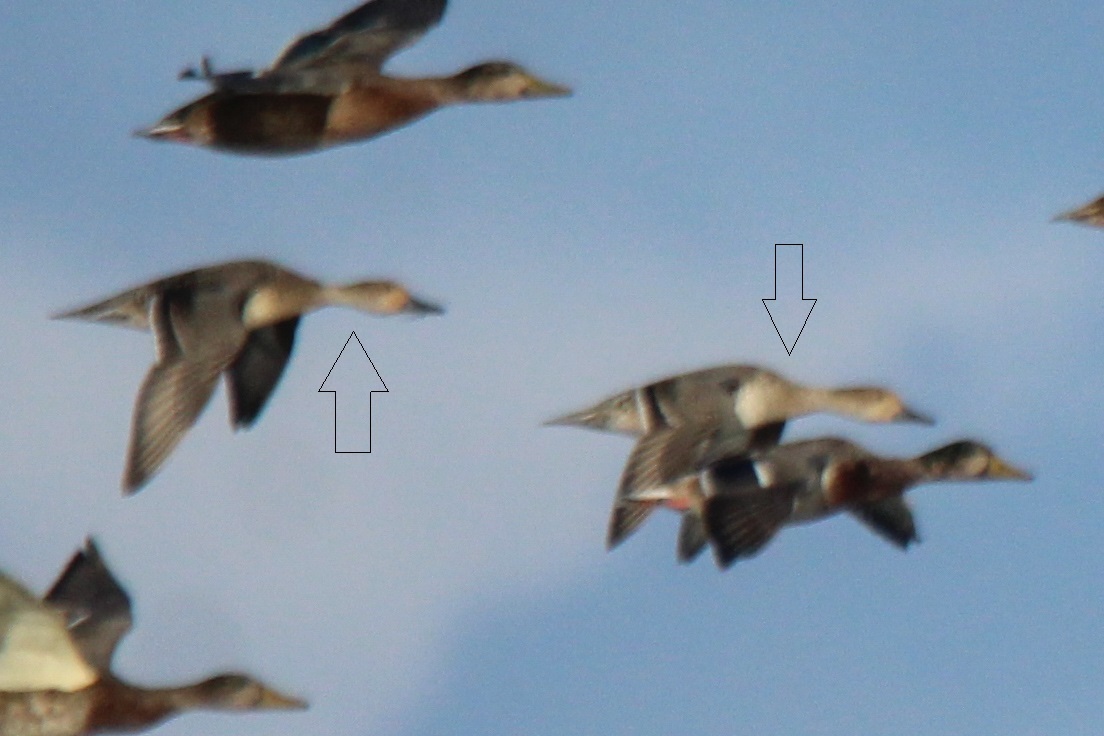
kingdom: Animalia
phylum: Chordata
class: Aves
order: Anseriformes
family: Anatidae
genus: Anas
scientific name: Anas acuta
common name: Northern pintail
